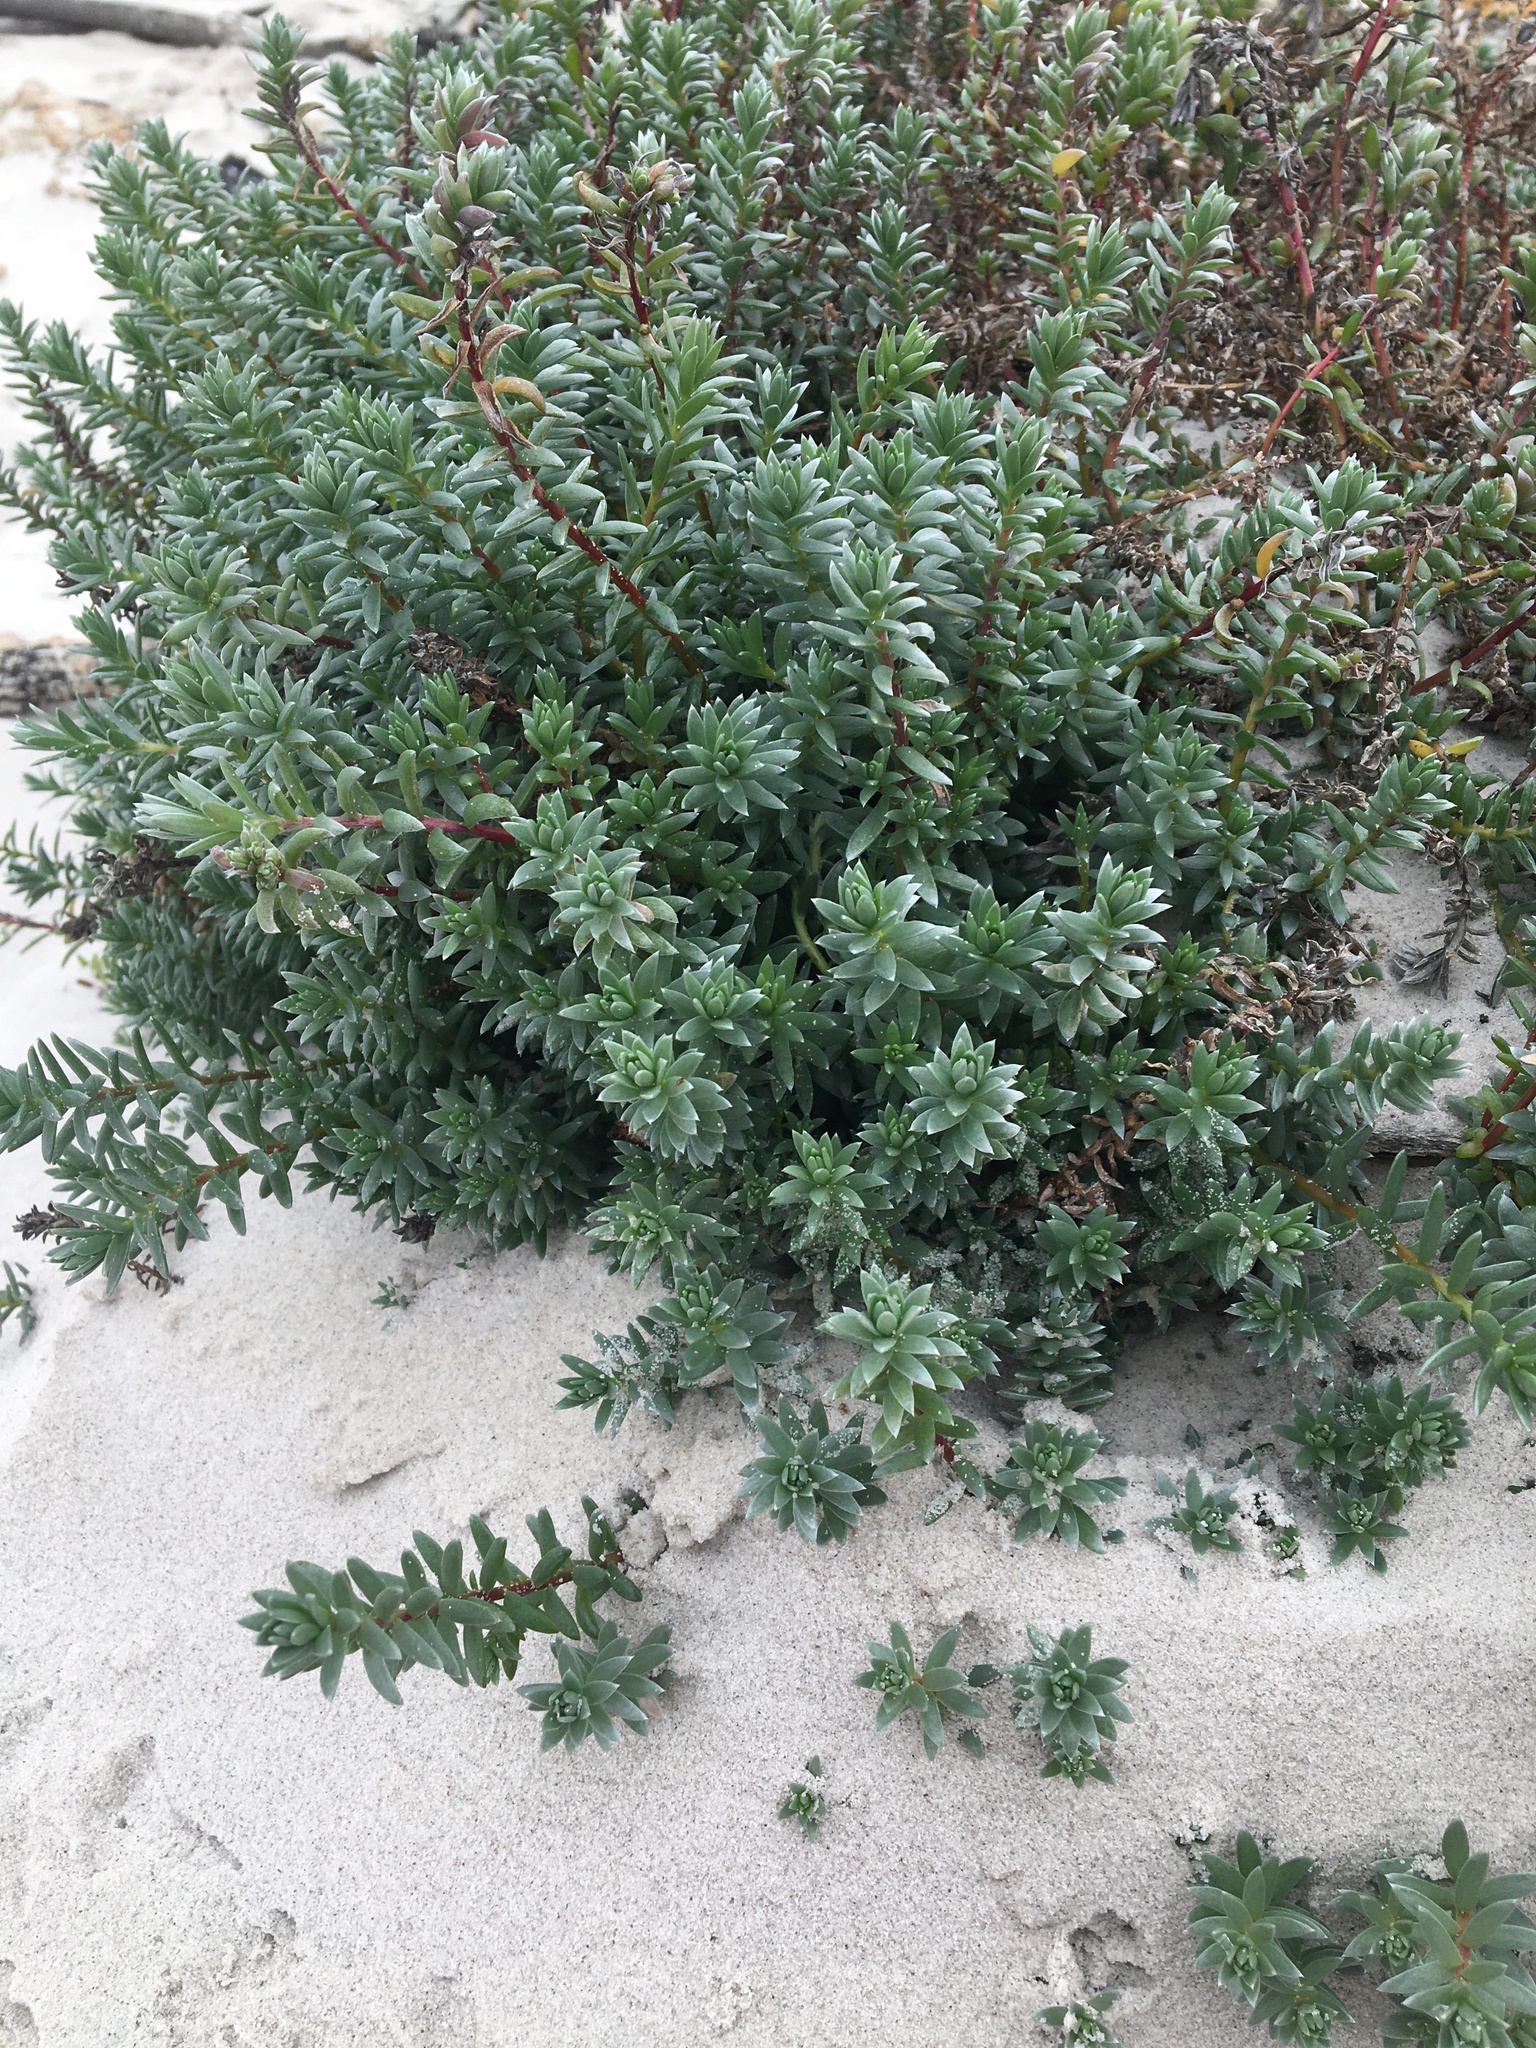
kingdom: Plantae
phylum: Tracheophyta
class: Magnoliopsida
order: Caryophyllales
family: Amaranthaceae
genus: Chenolea
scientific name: Chenolea diffusa
